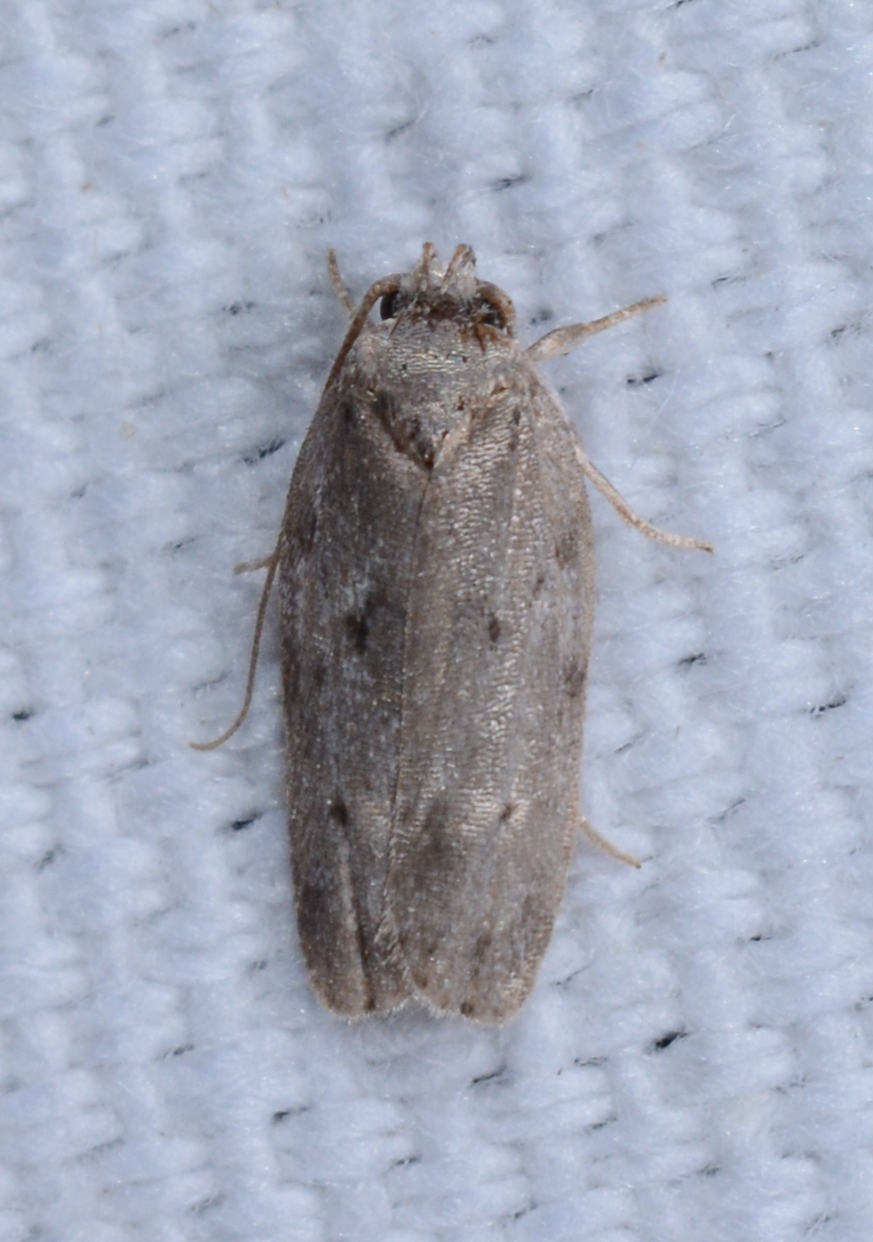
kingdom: Animalia
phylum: Arthropoda
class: Insecta
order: Lepidoptera
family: Depressariidae
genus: Antaeotricha
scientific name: Antaeotricha humilis
